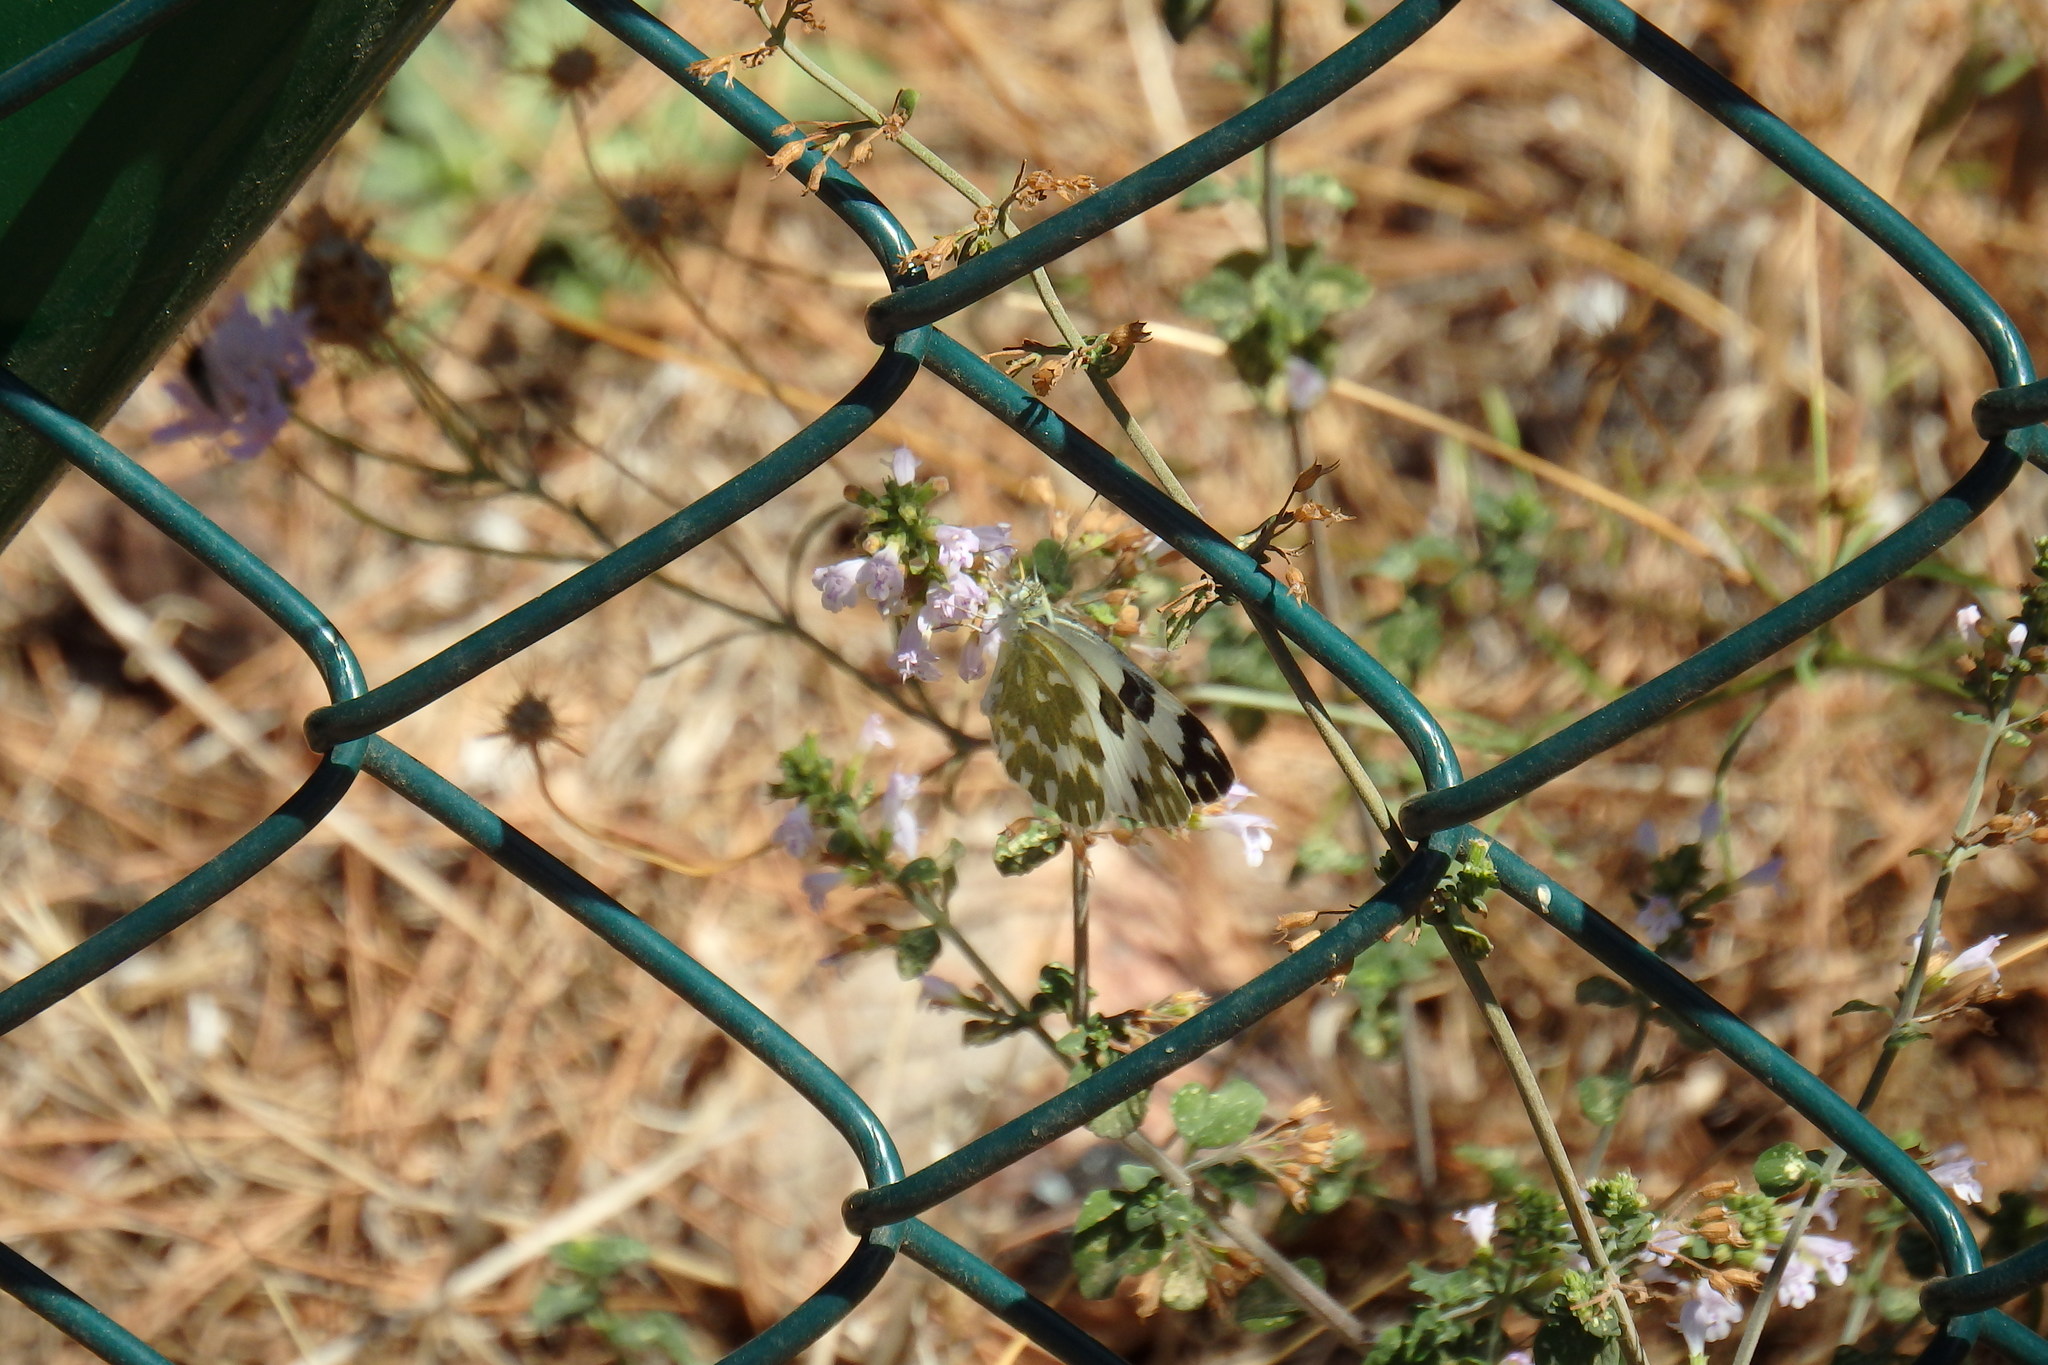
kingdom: Animalia
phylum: Arthropoda
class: Insecta
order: Lepidoptera
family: Pieridae
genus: Pontia
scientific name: Pontia edusa
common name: Eastern bath white
